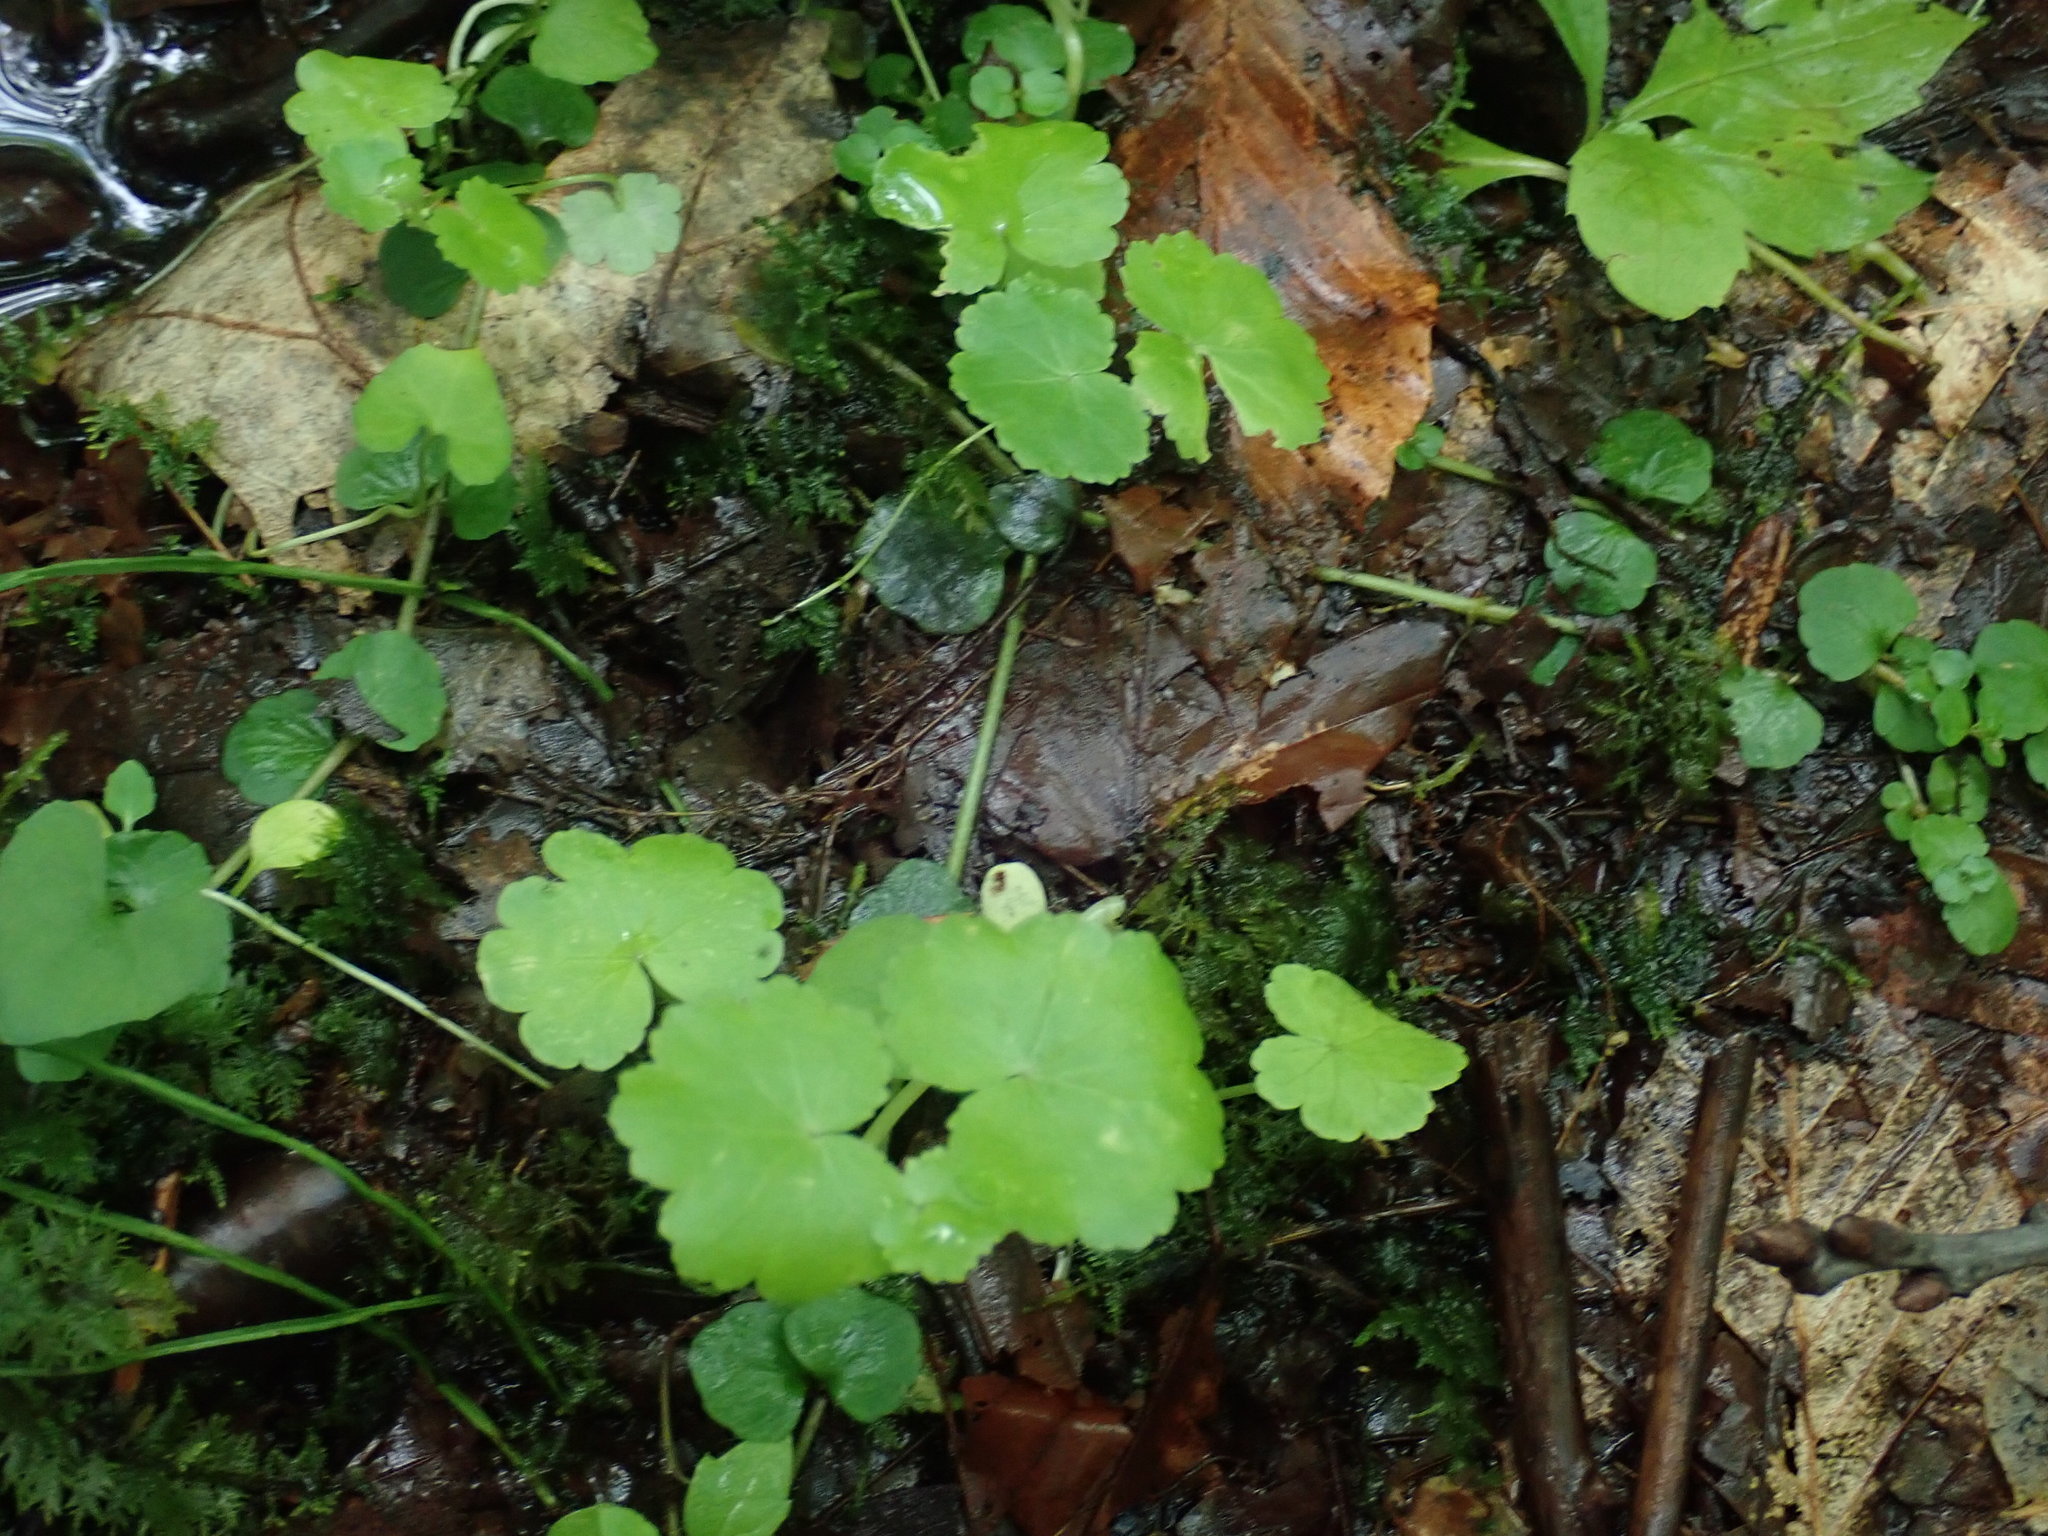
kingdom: Plantae
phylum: Tracheophyta
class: Magnoliopsida
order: Apiales
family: Araliaceae
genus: Hydrocotyle
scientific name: Hydrocotyle americana
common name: American water-pennywort
